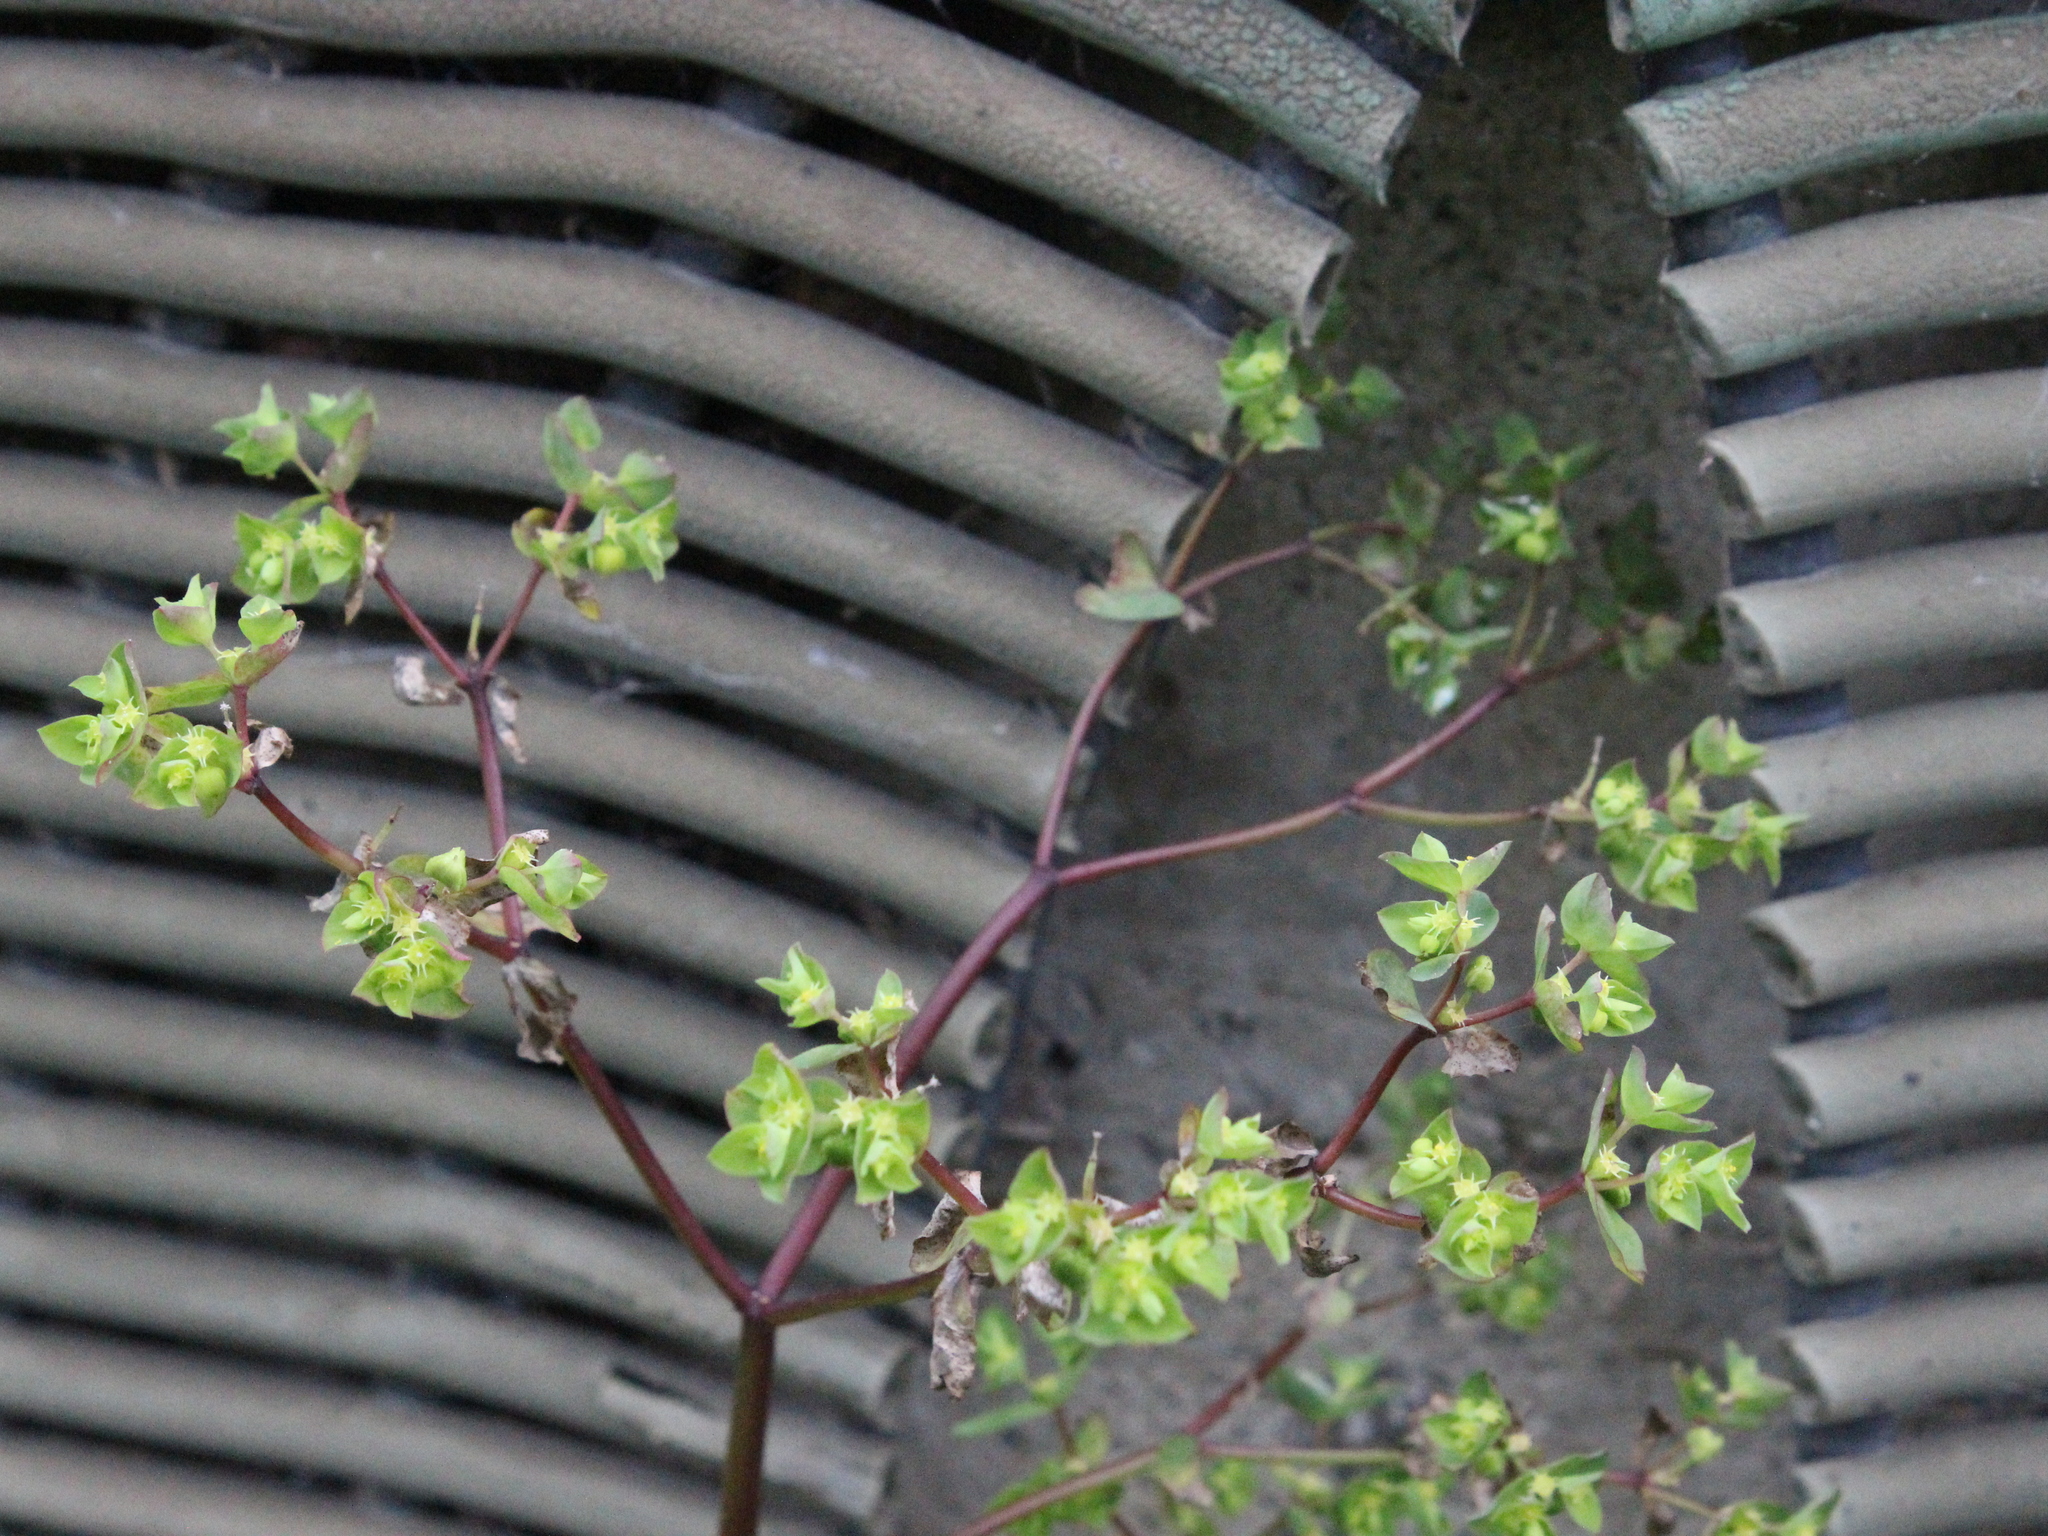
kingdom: Plantae
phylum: Tracheophyta
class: Magnoliopsida
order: Malpighiales
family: Euphorbiaceae
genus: Euphorbia
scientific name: Euphorbia peplus
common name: Petty spurge
